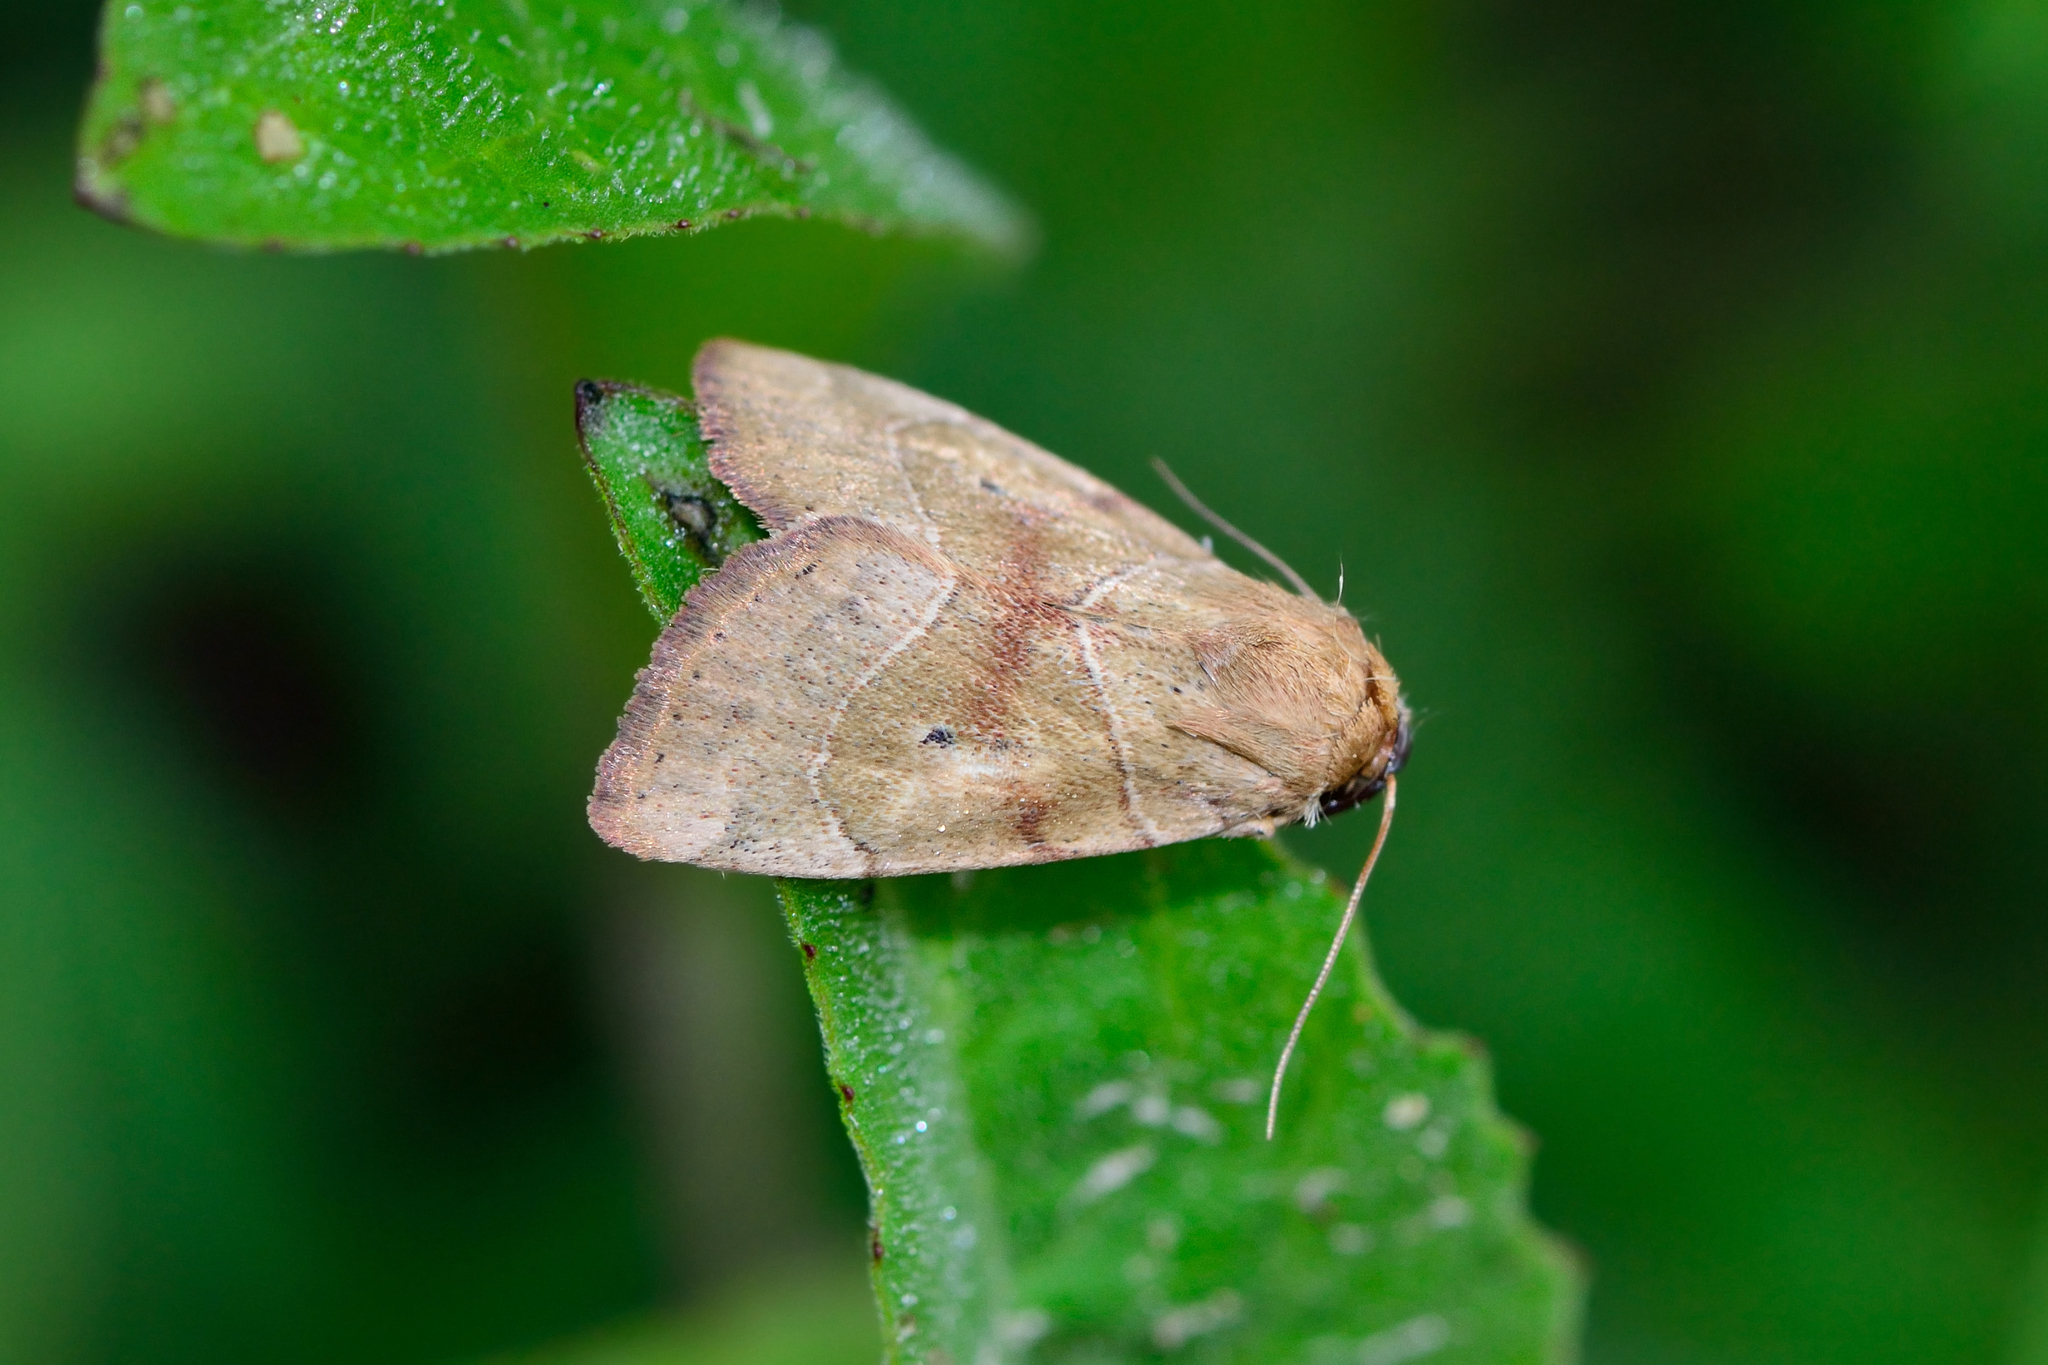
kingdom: Animalia
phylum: Arthropoda
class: Insecta
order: Lepidoptera
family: Noctuidae
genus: Cosmia
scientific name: Cosmia trapezina
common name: Dun-bar
